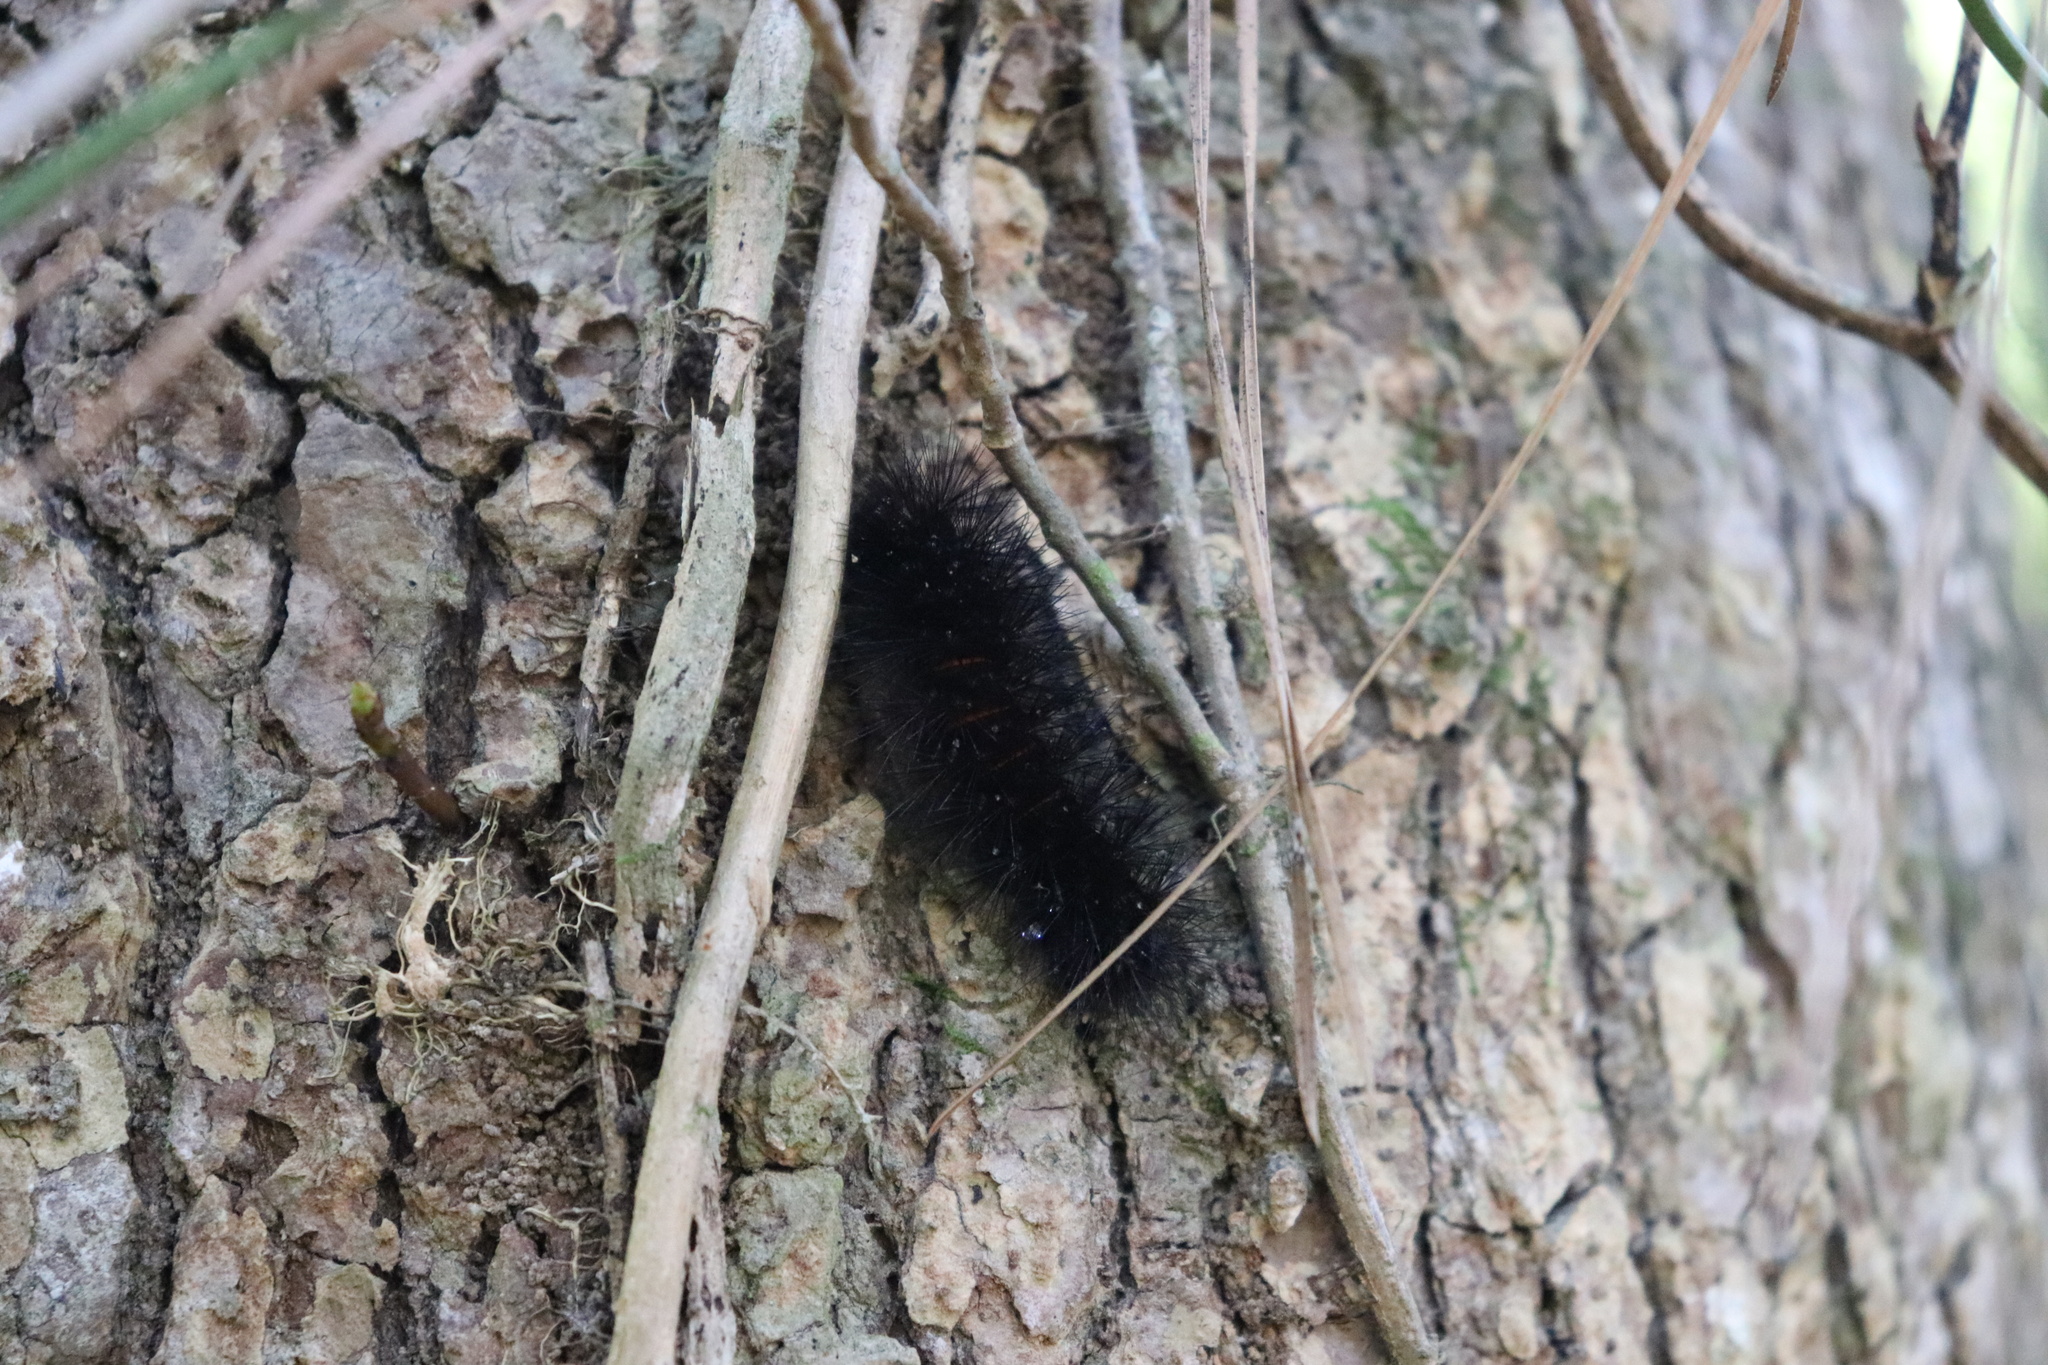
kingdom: Animalia
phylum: Arthropoda
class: Insecta
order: Lepidoptera
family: Erebidae
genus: Hypercompe
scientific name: Hypercompe scribonia
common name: Giant leopard moth
